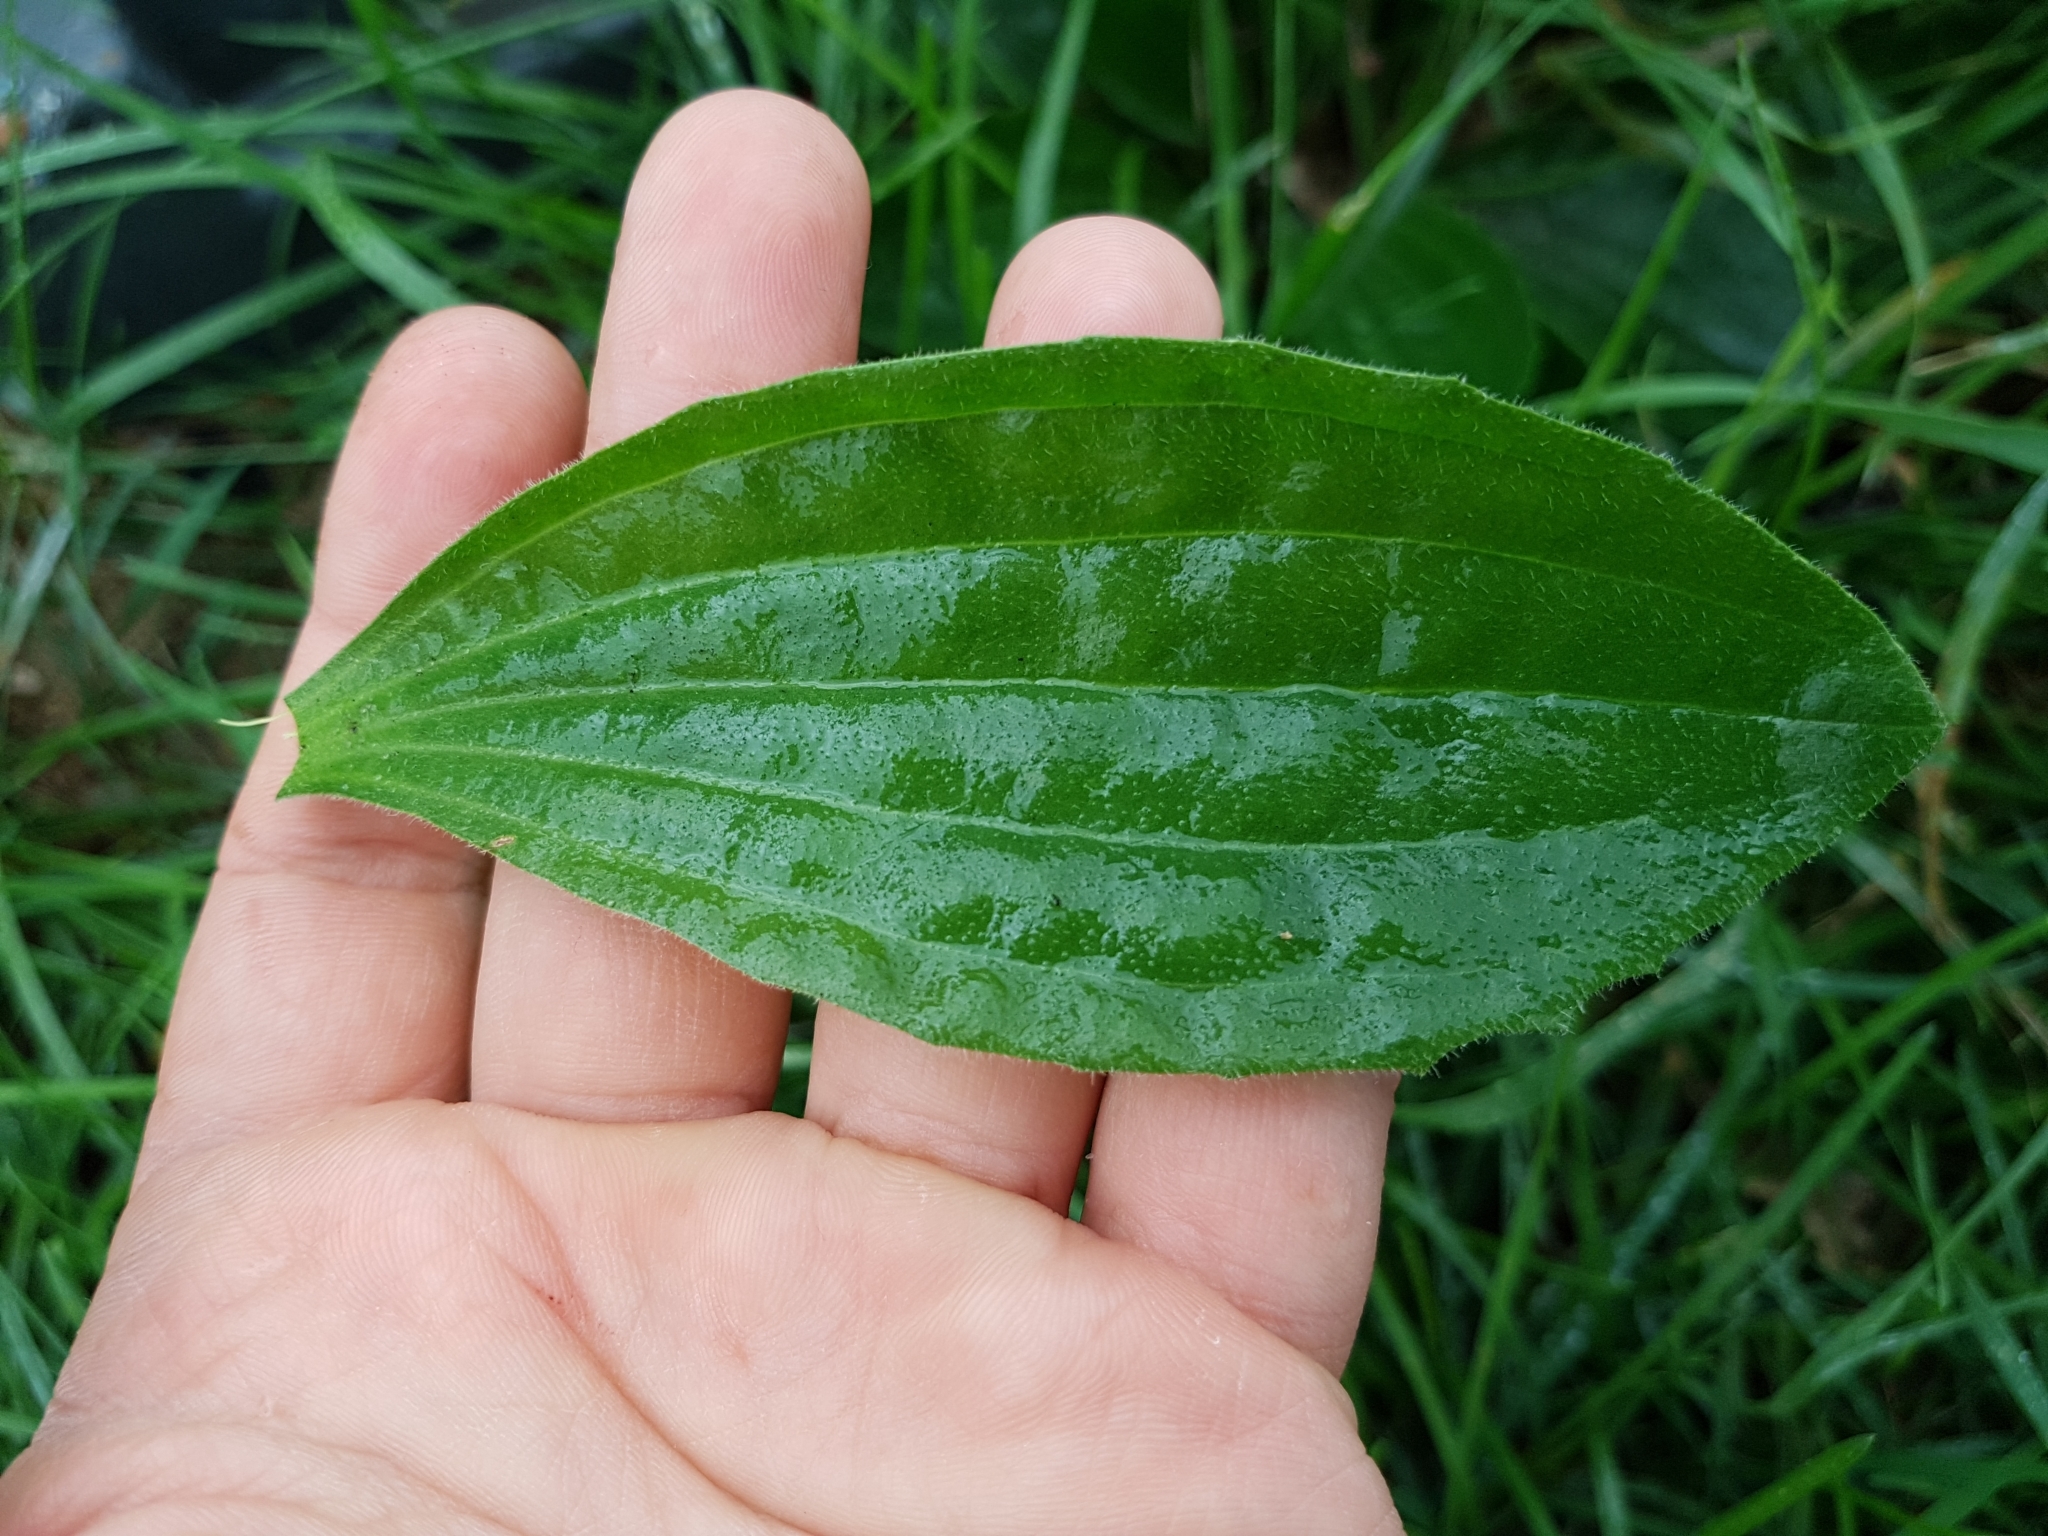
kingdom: Plantae
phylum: Tracheophyta
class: Magnoliopsida
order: Lamiales
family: Plantaginaceae
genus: Plantago
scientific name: Plantago media
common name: Hoary plantain
